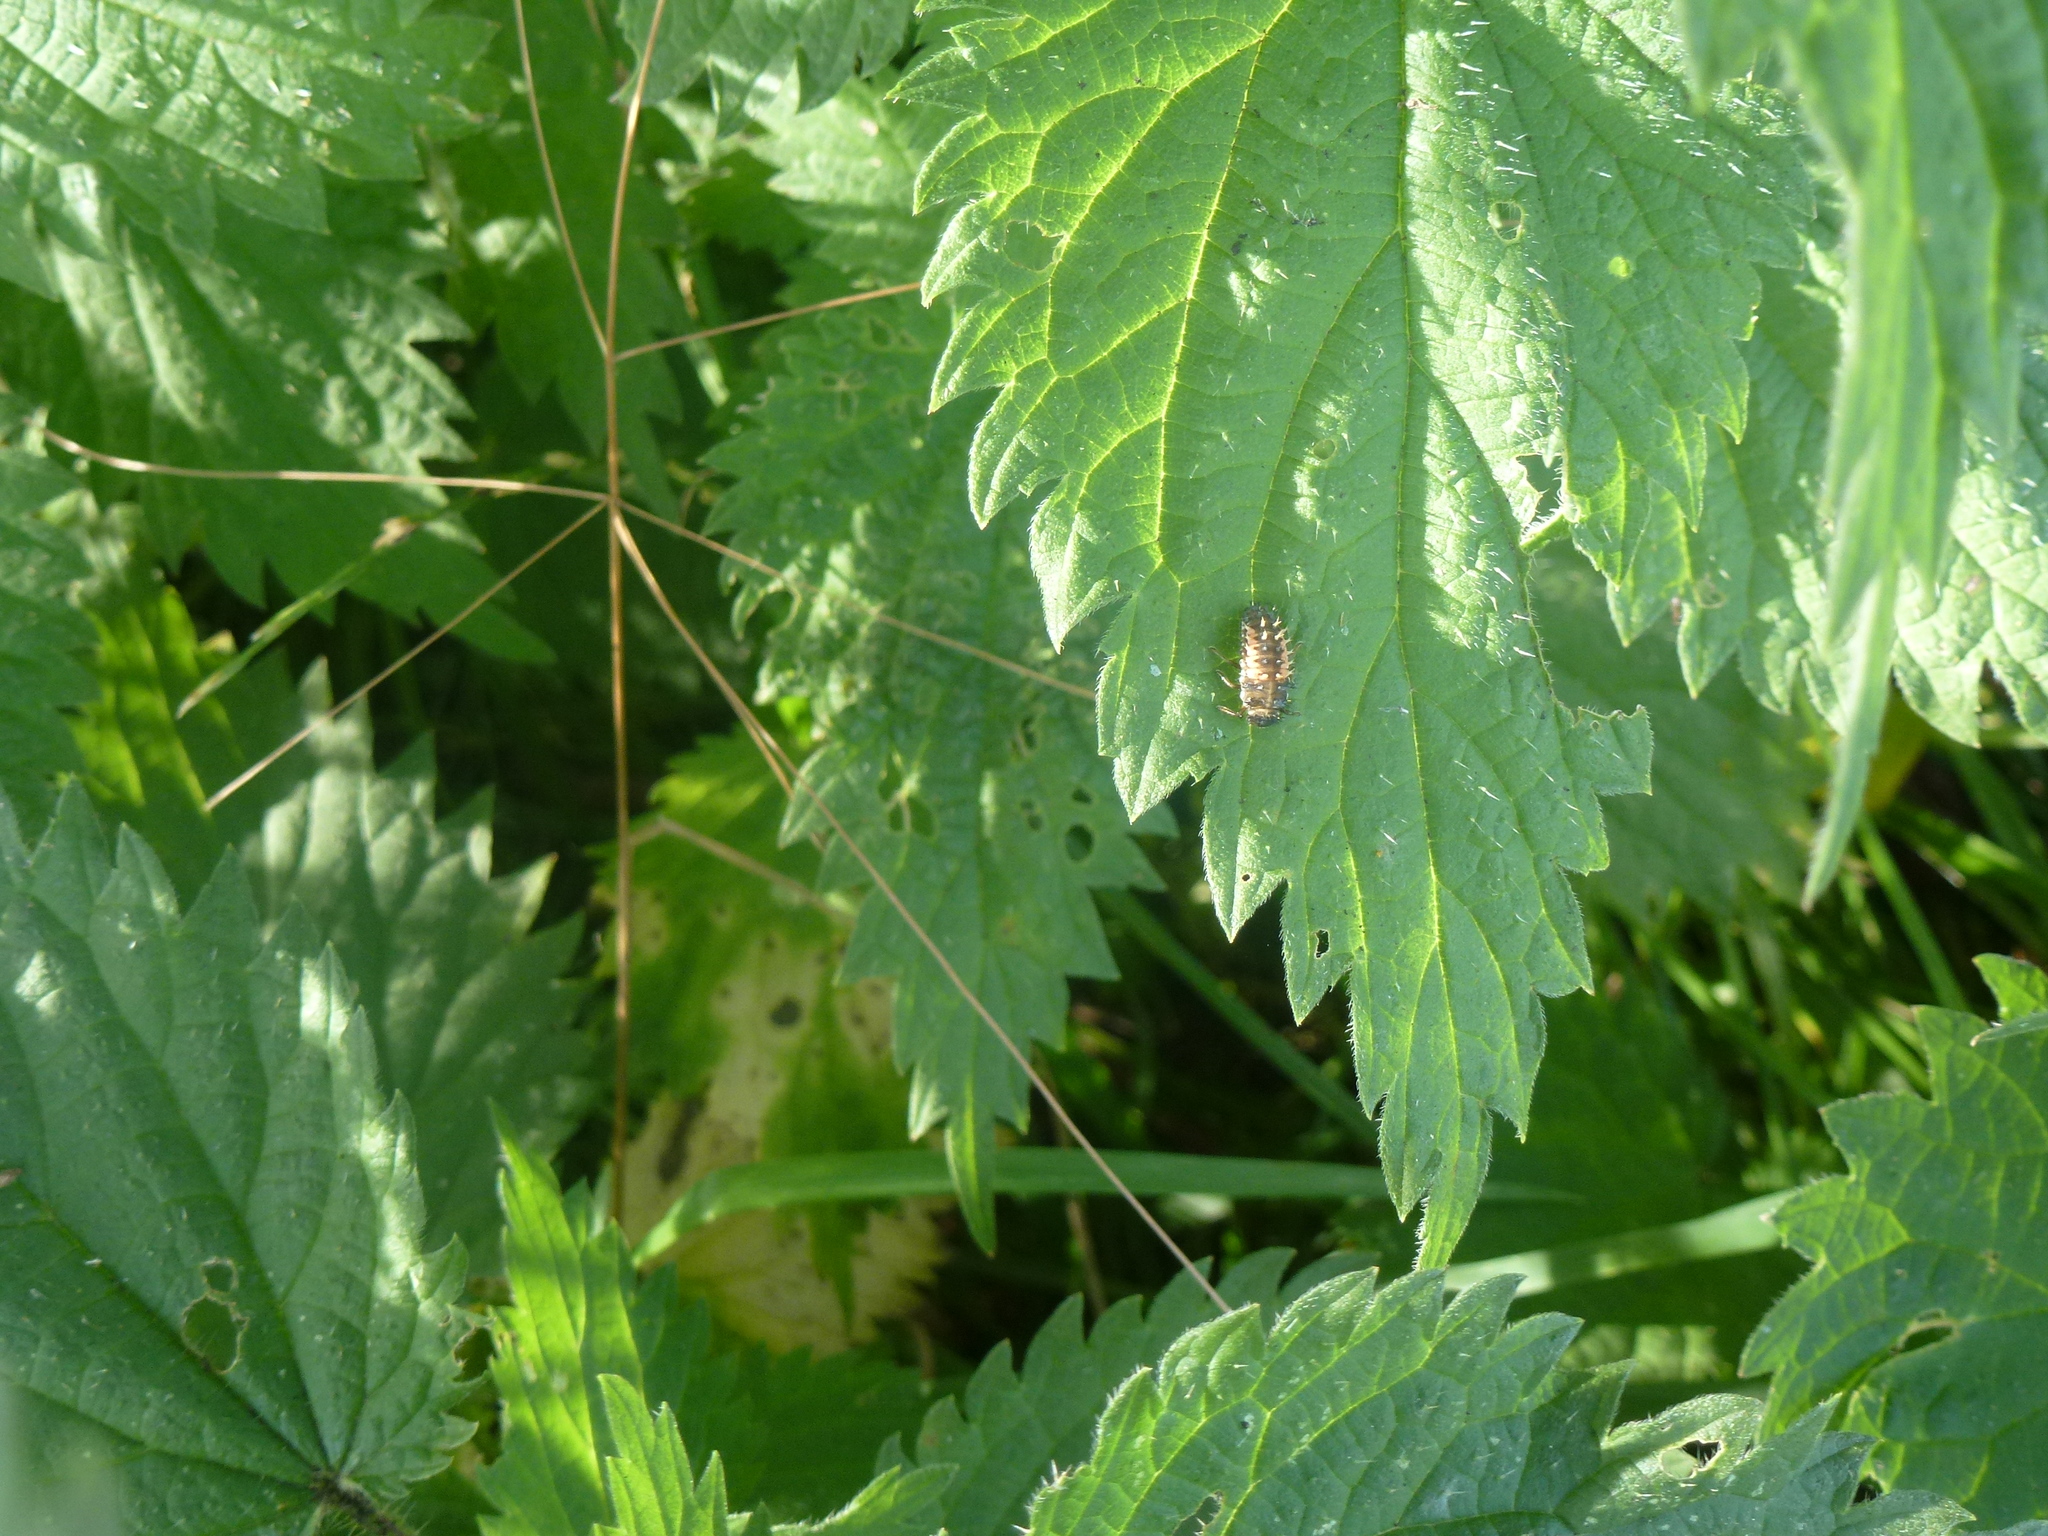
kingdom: Animalia
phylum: Arthropoda
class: Insecta
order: Coleoptera
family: Coccinellidae
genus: Harmonia
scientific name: Harmonia axyridis
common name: Harlequin ladybird
